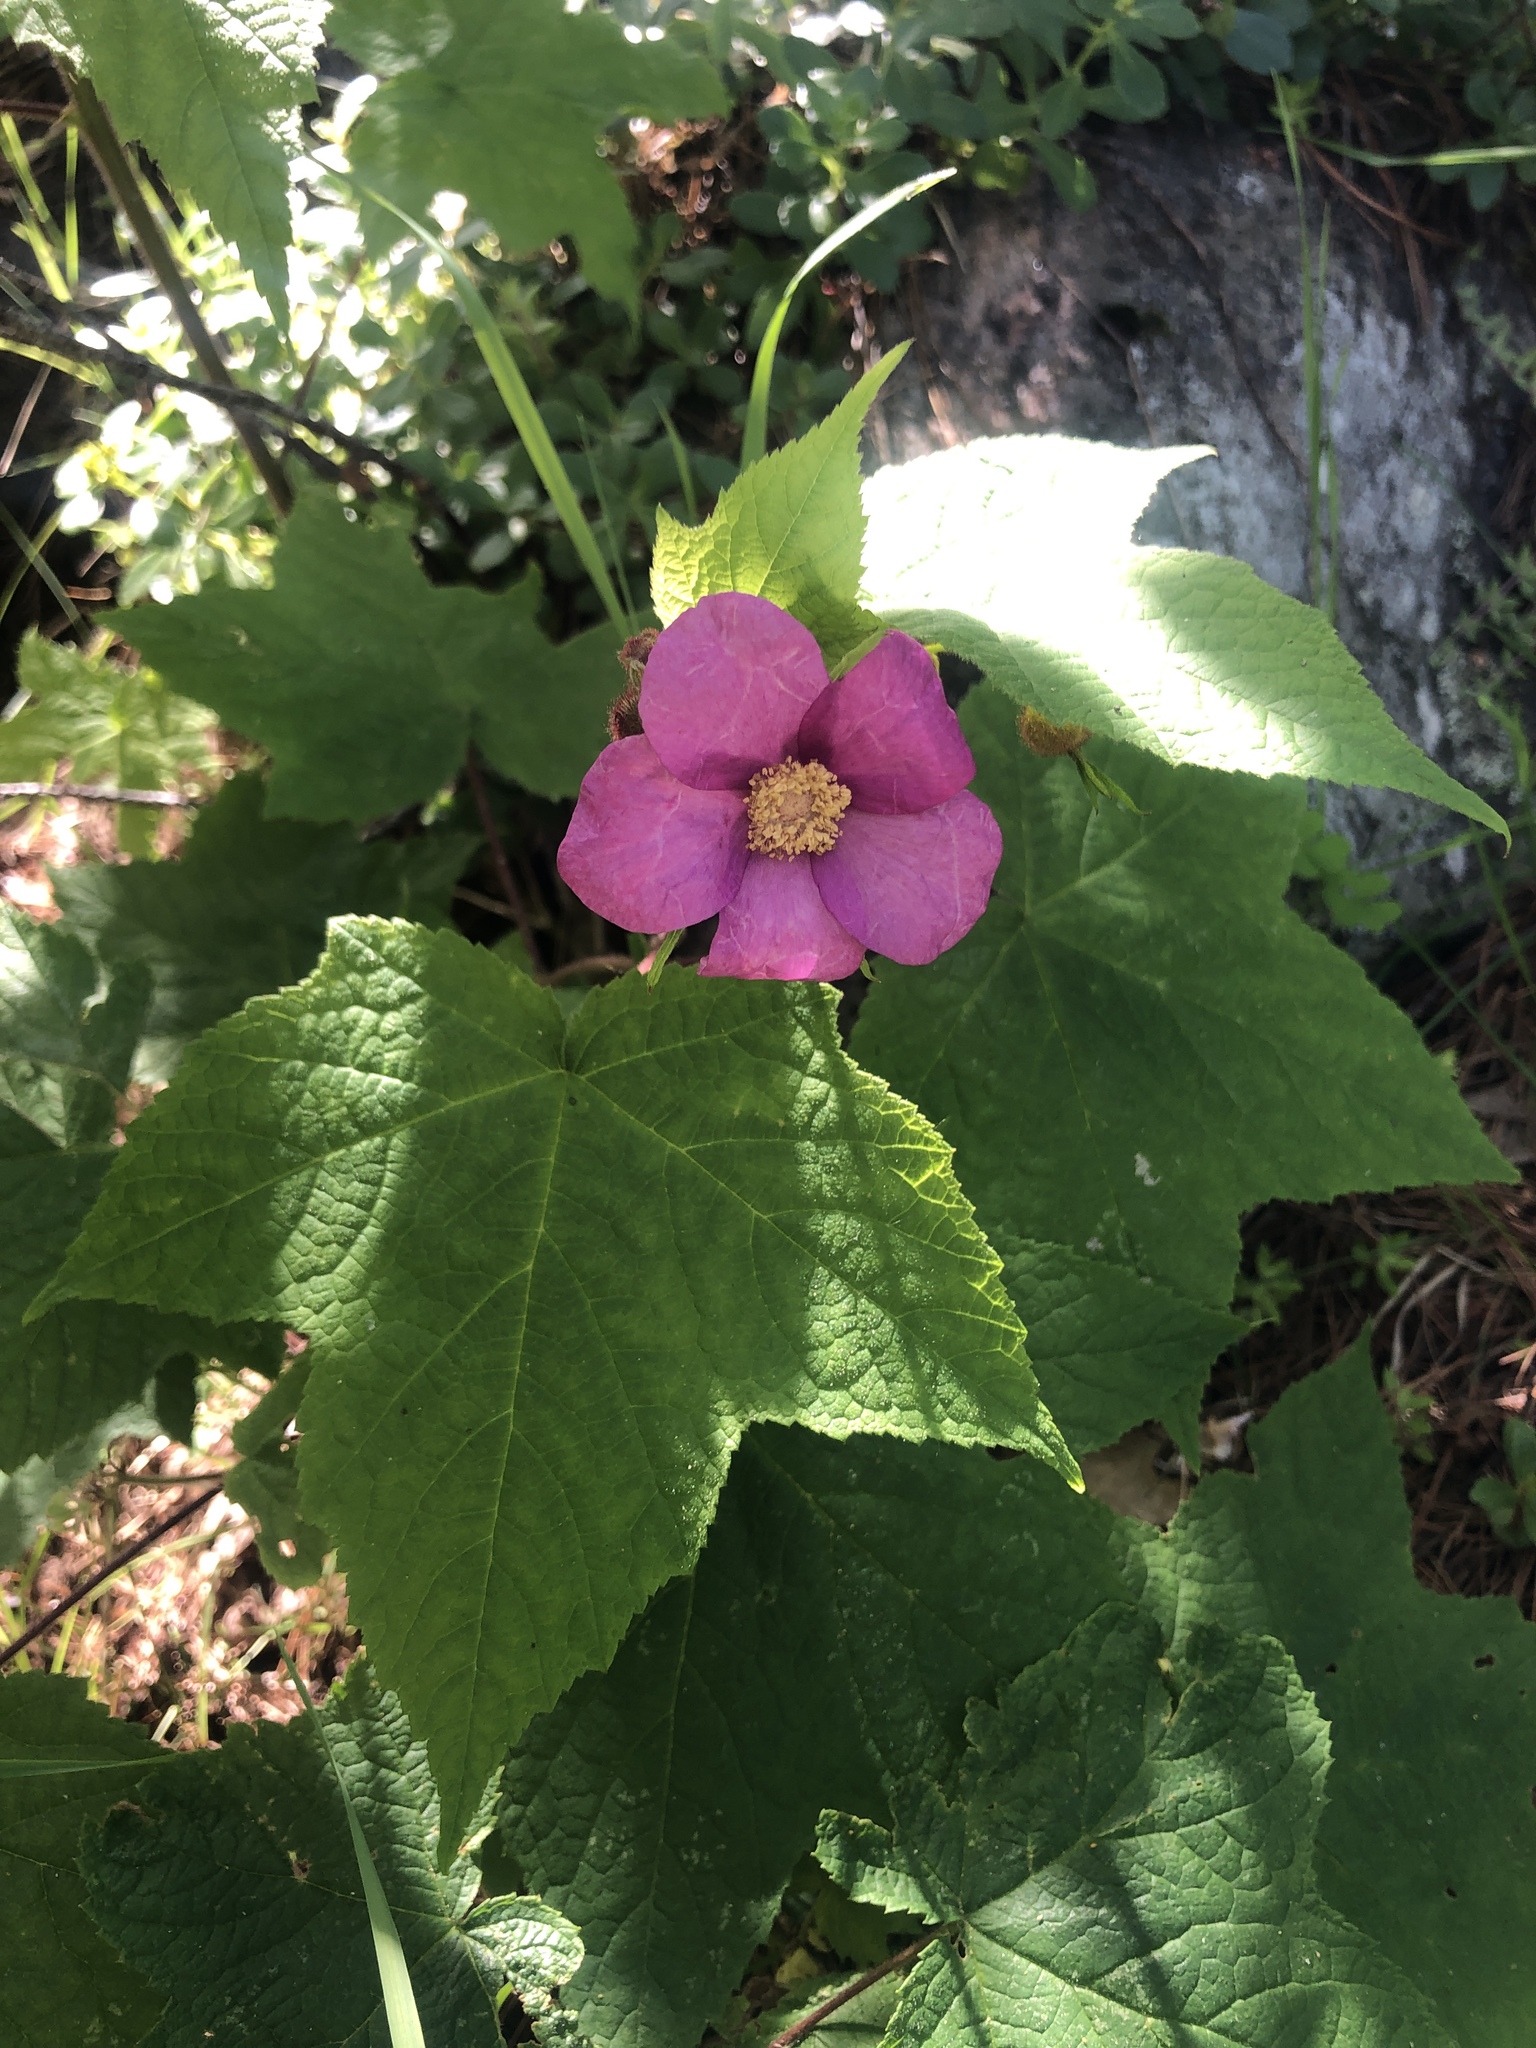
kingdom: Plantae
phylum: Tracheophyta
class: Magnoliopsida
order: Rosales
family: Rosaceae
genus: Rubus
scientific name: Rubus odoratus
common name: Purple-flowered raspberry
